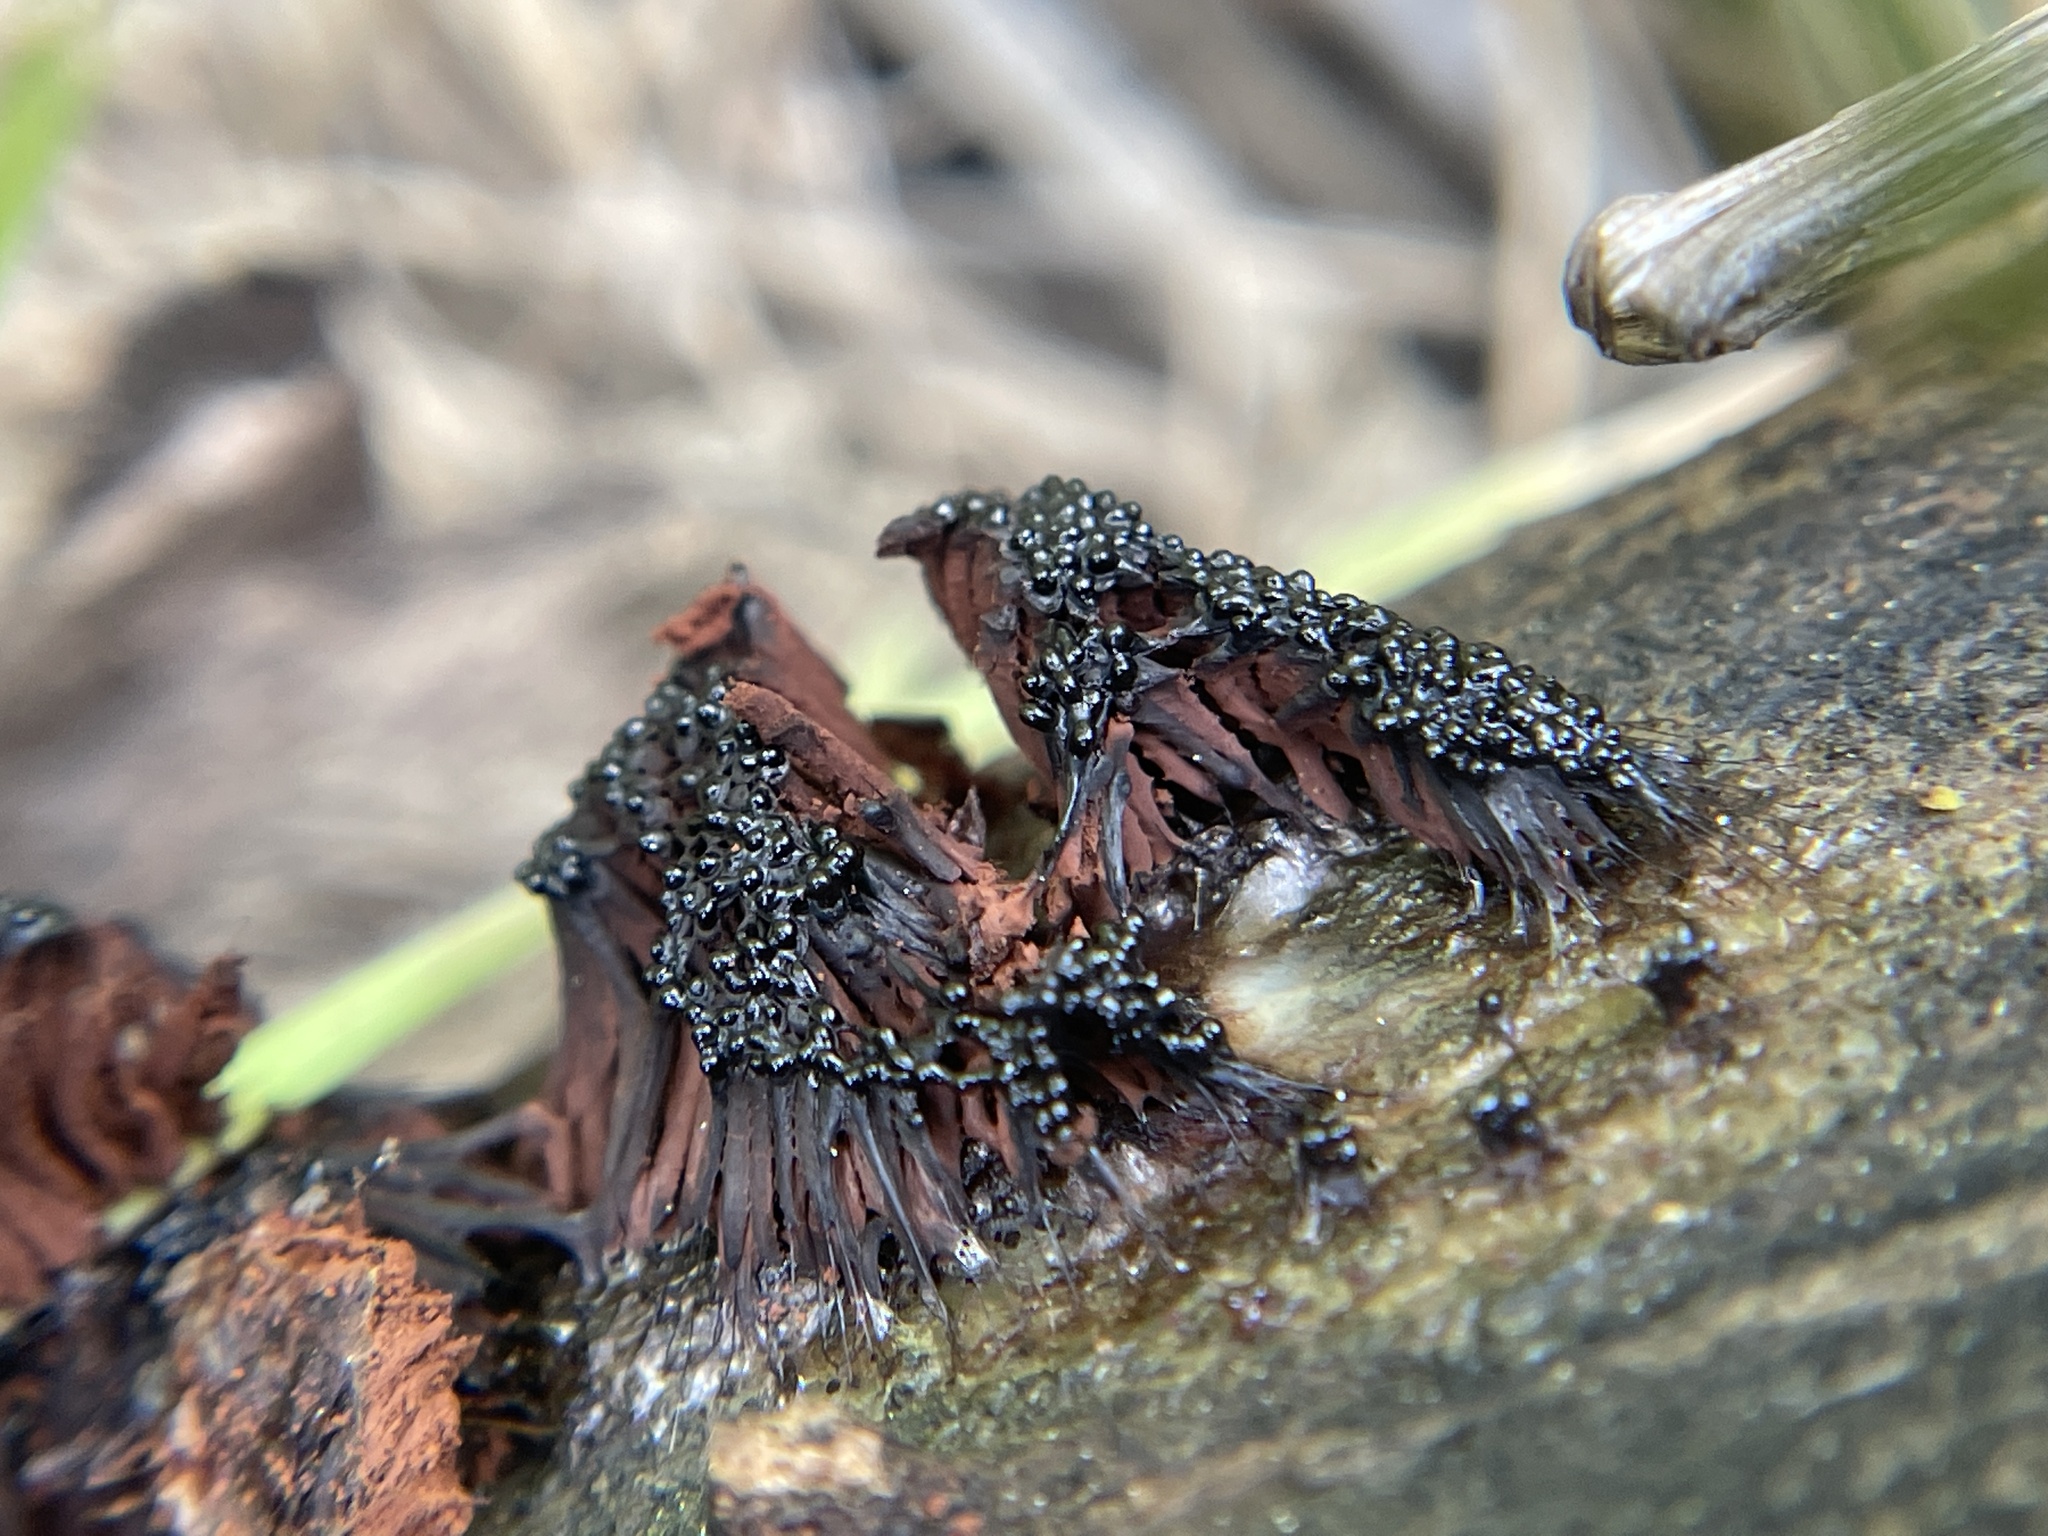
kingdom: Protozoa
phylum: Mycetozoa
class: Myxomycetes
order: Stemonitidales
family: Stemonitidaceae
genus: Stemonitis
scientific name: Stemonitis splendens
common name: Chocolate tube slime
